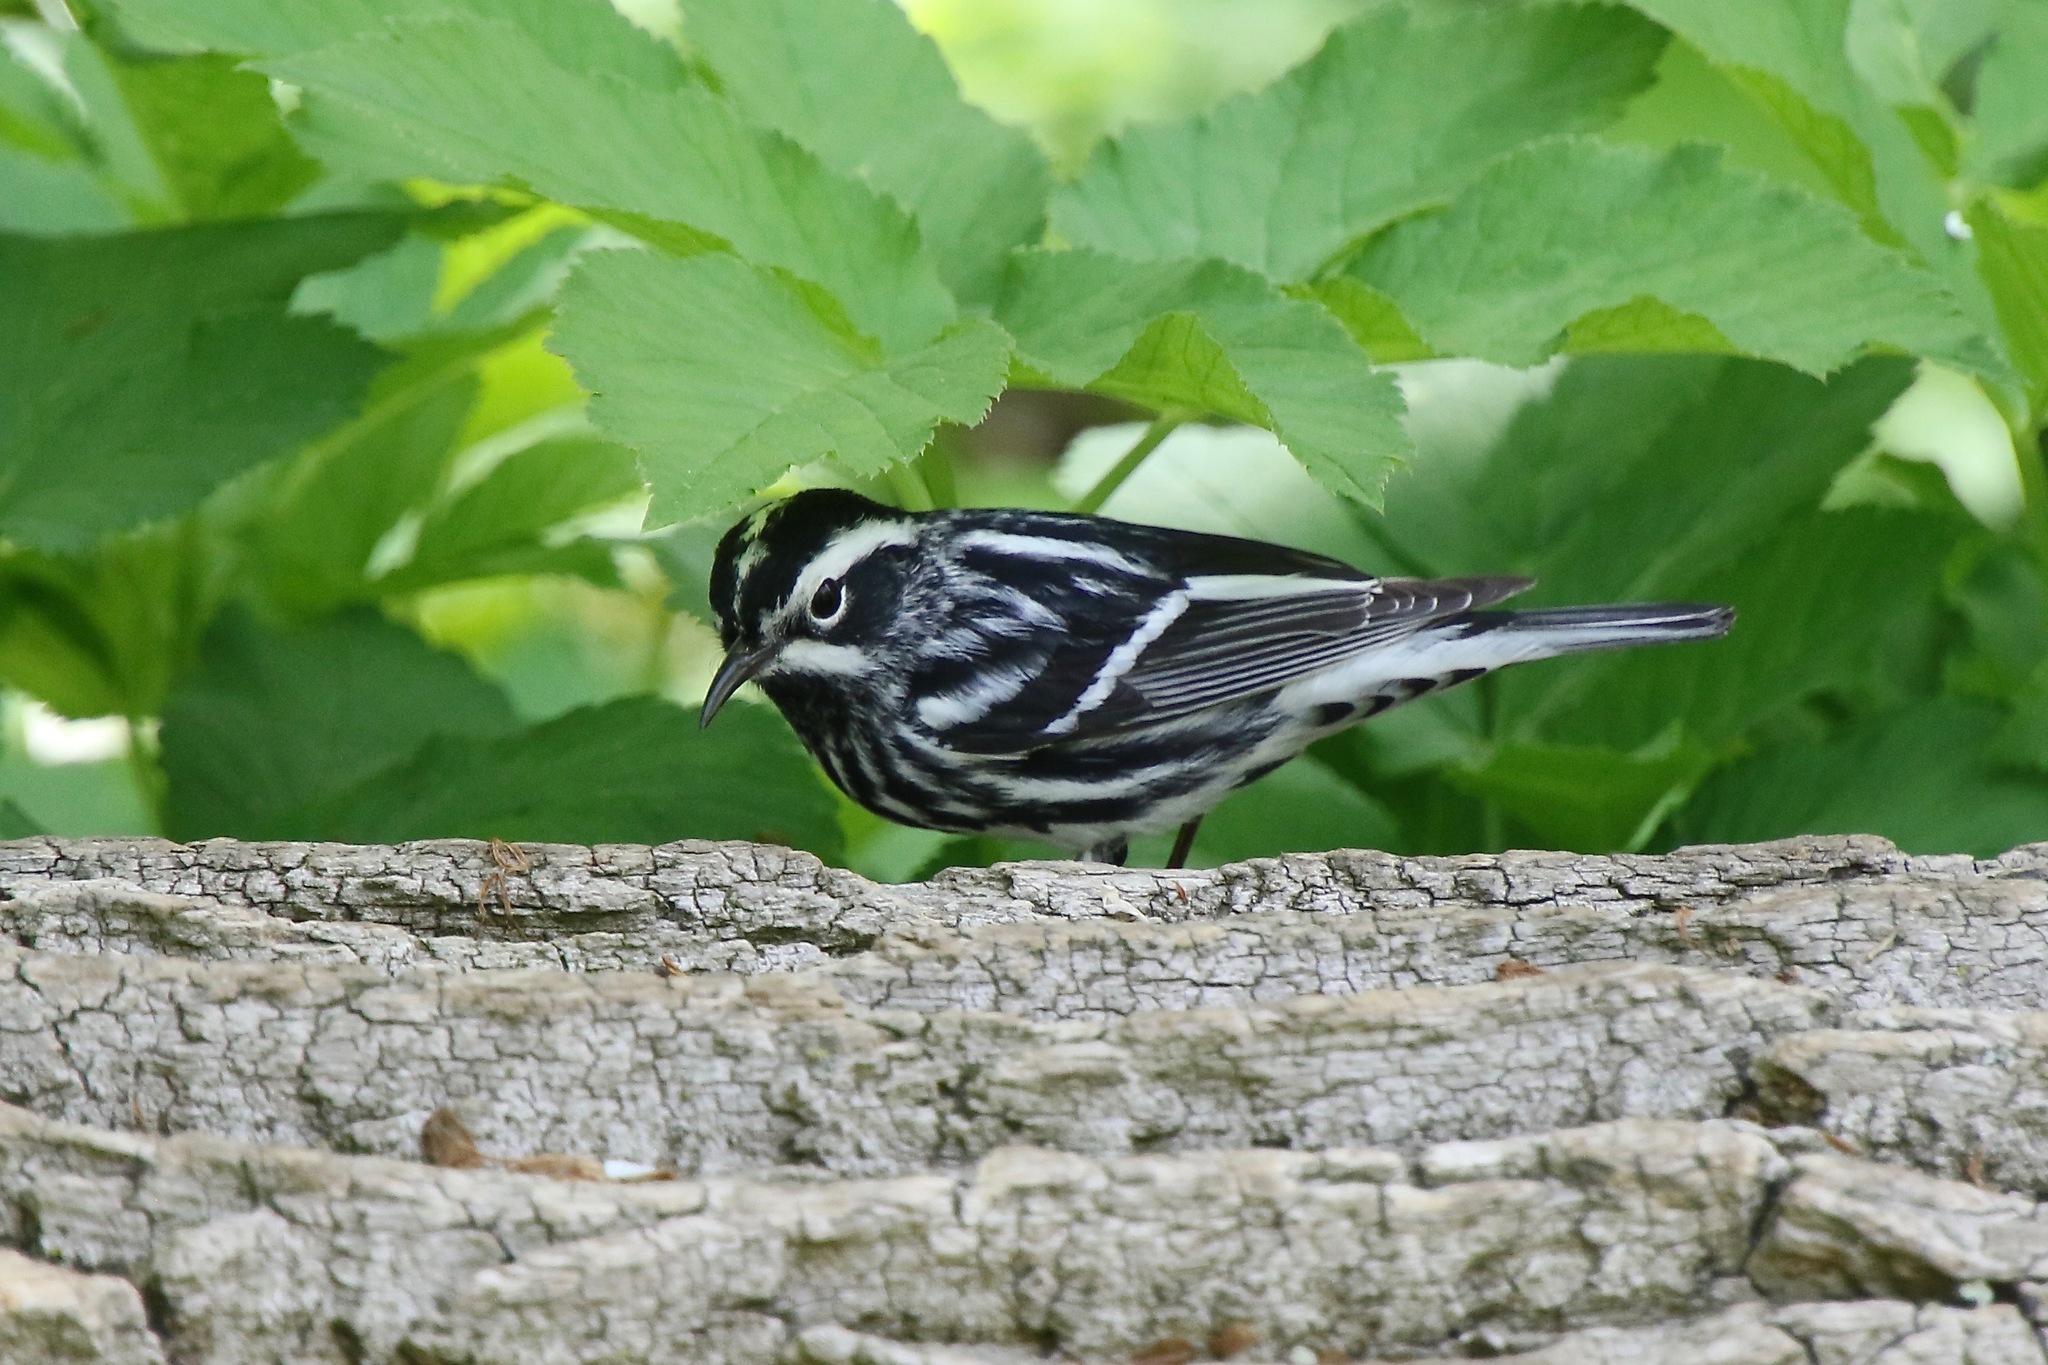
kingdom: Animalia
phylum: Chordata
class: Aves
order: Passeriformes
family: Parulidae
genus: Mniotilta
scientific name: Mniotilta varia
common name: Black-and-white warbler
